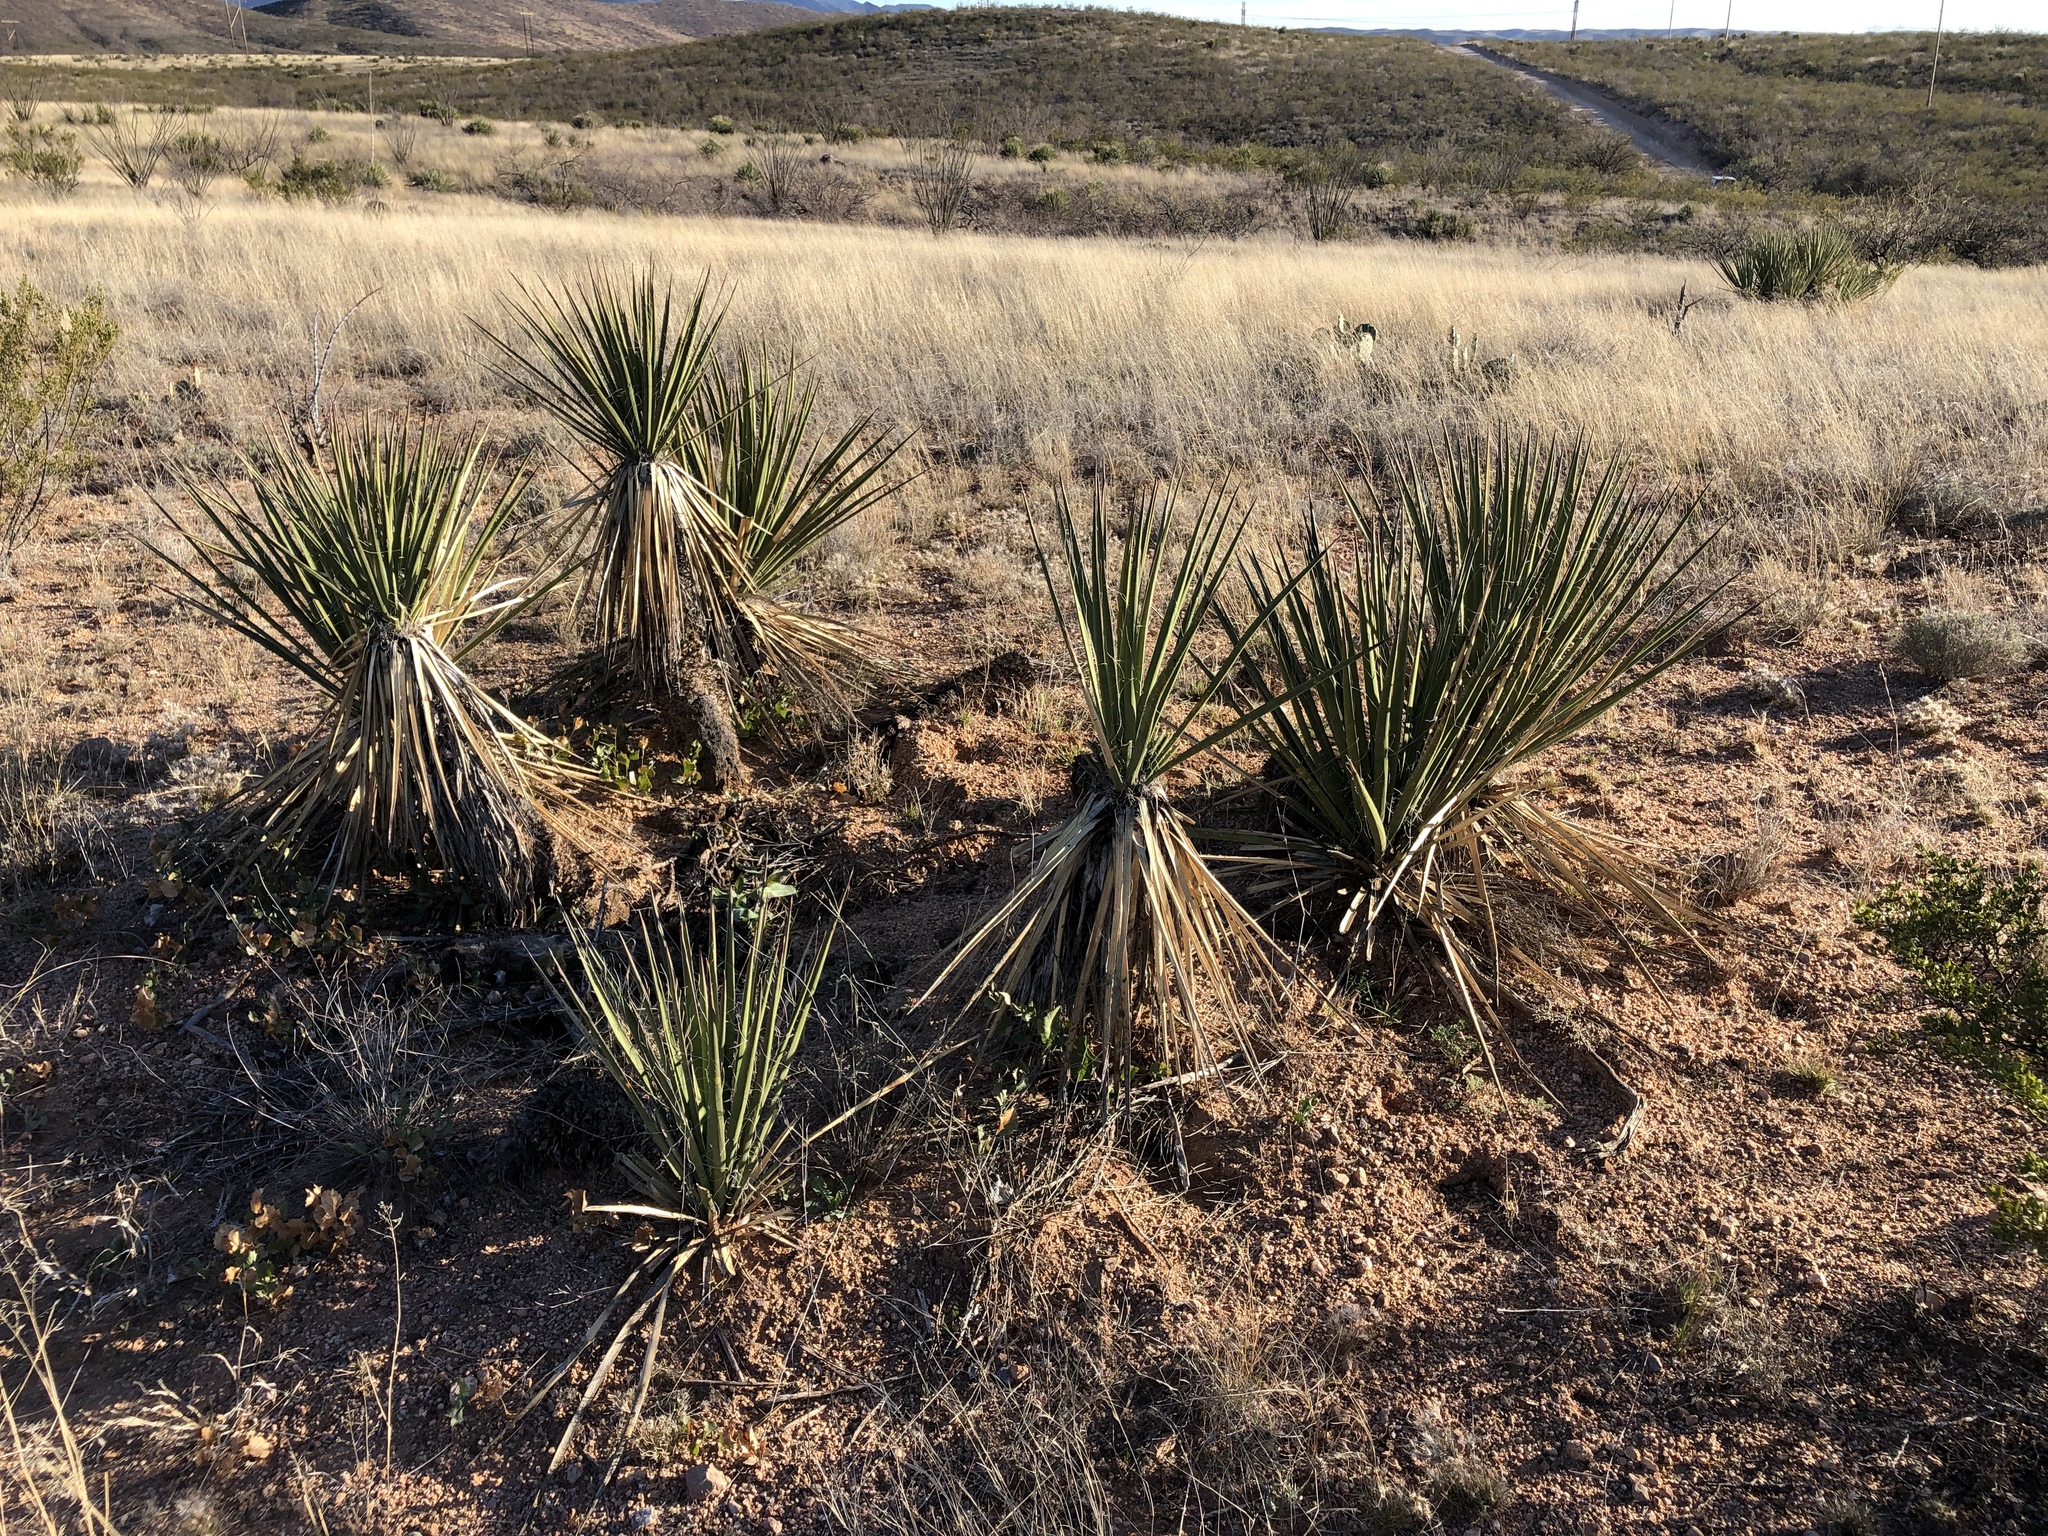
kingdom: Plantae
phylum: Tracheophyta
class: Liliopsida
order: Asparagales
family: Asparagaceae
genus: Yucca
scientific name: Yucca baccata
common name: Banana yucca
